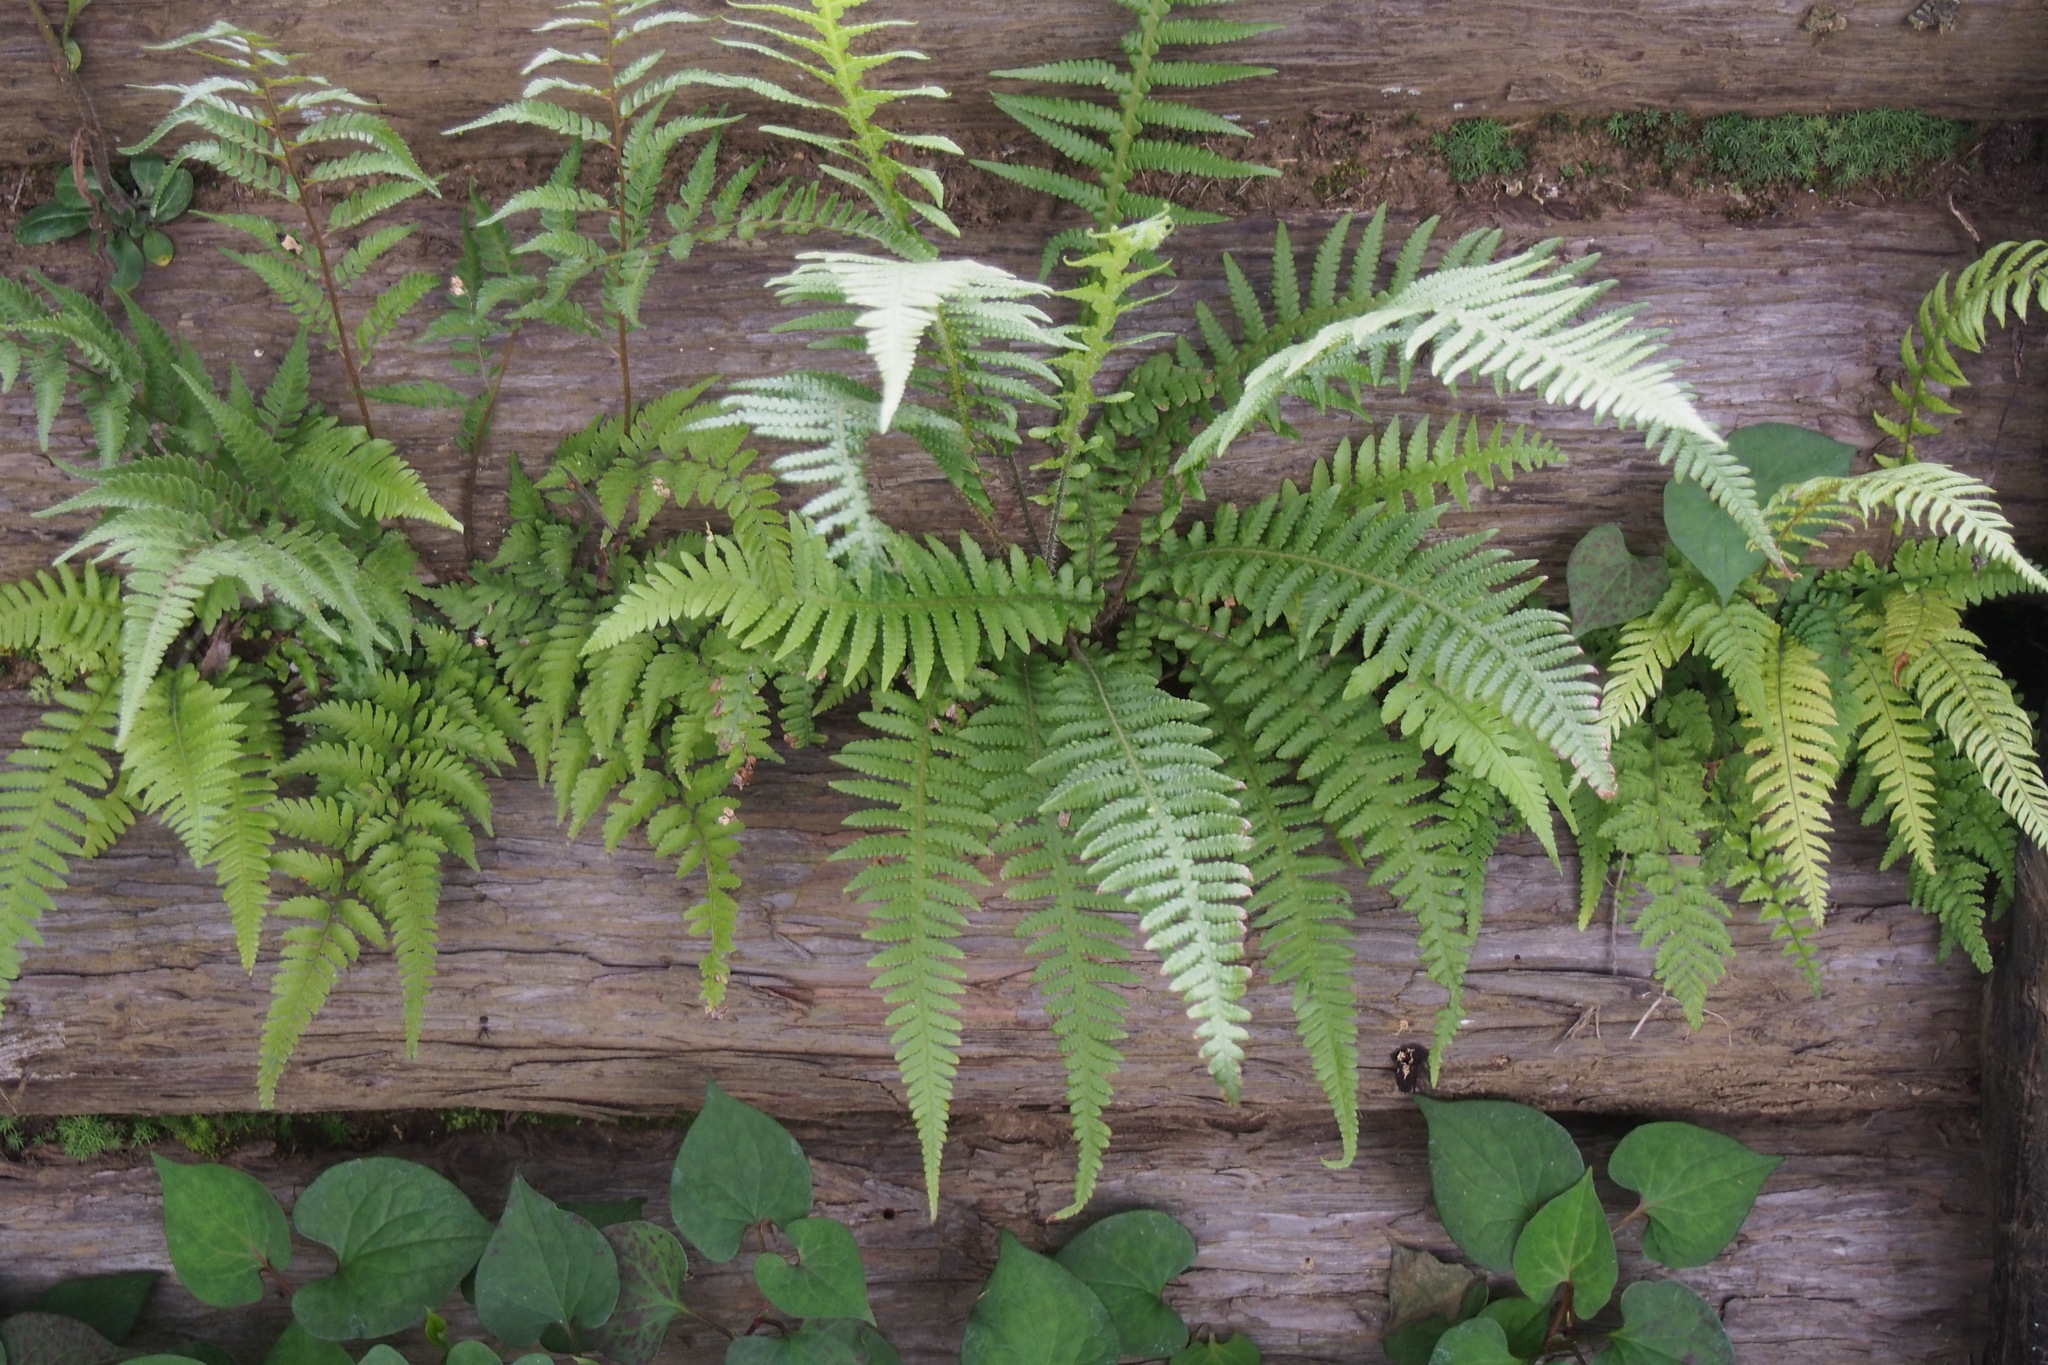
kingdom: Plantae
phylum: Tracheophyta
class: Polypodiopsida
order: Polypodiales
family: Thelypteridaceae
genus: Phegopteris
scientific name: Phegopteris decursive-pinnata
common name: Japanese beech fern
